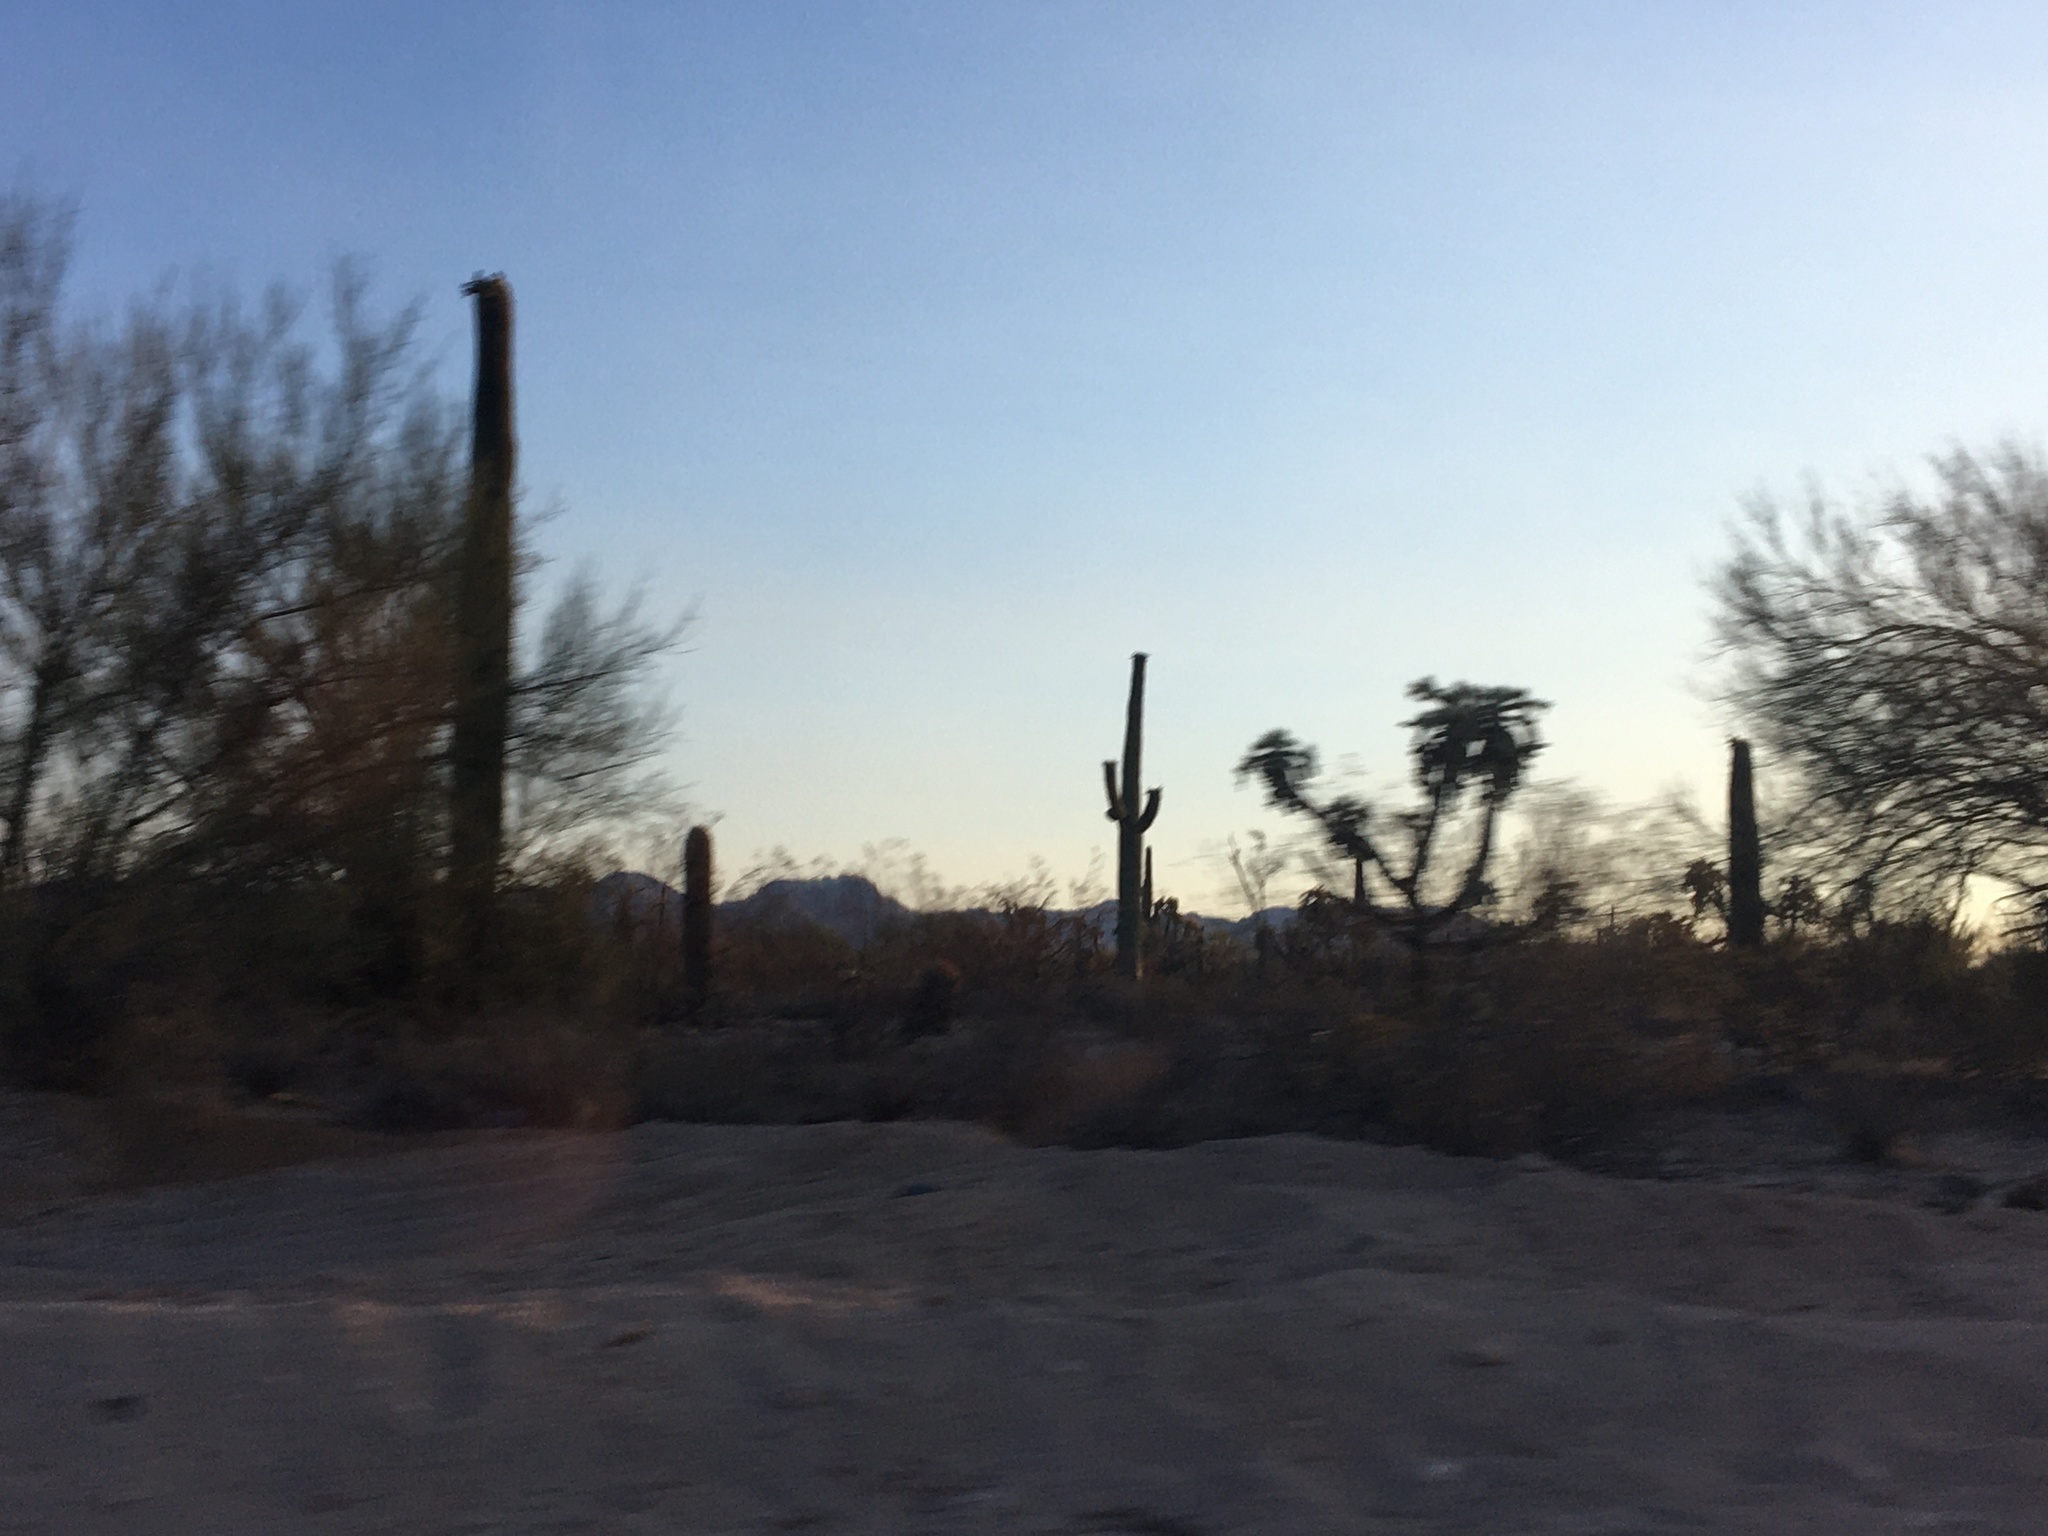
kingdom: Plantae
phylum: Tracheophyta
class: Magnoliopsida
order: Caryophyllales
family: Cactaceae
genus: Carnegiea
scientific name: Carnegiea gigantea
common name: Saguaro
